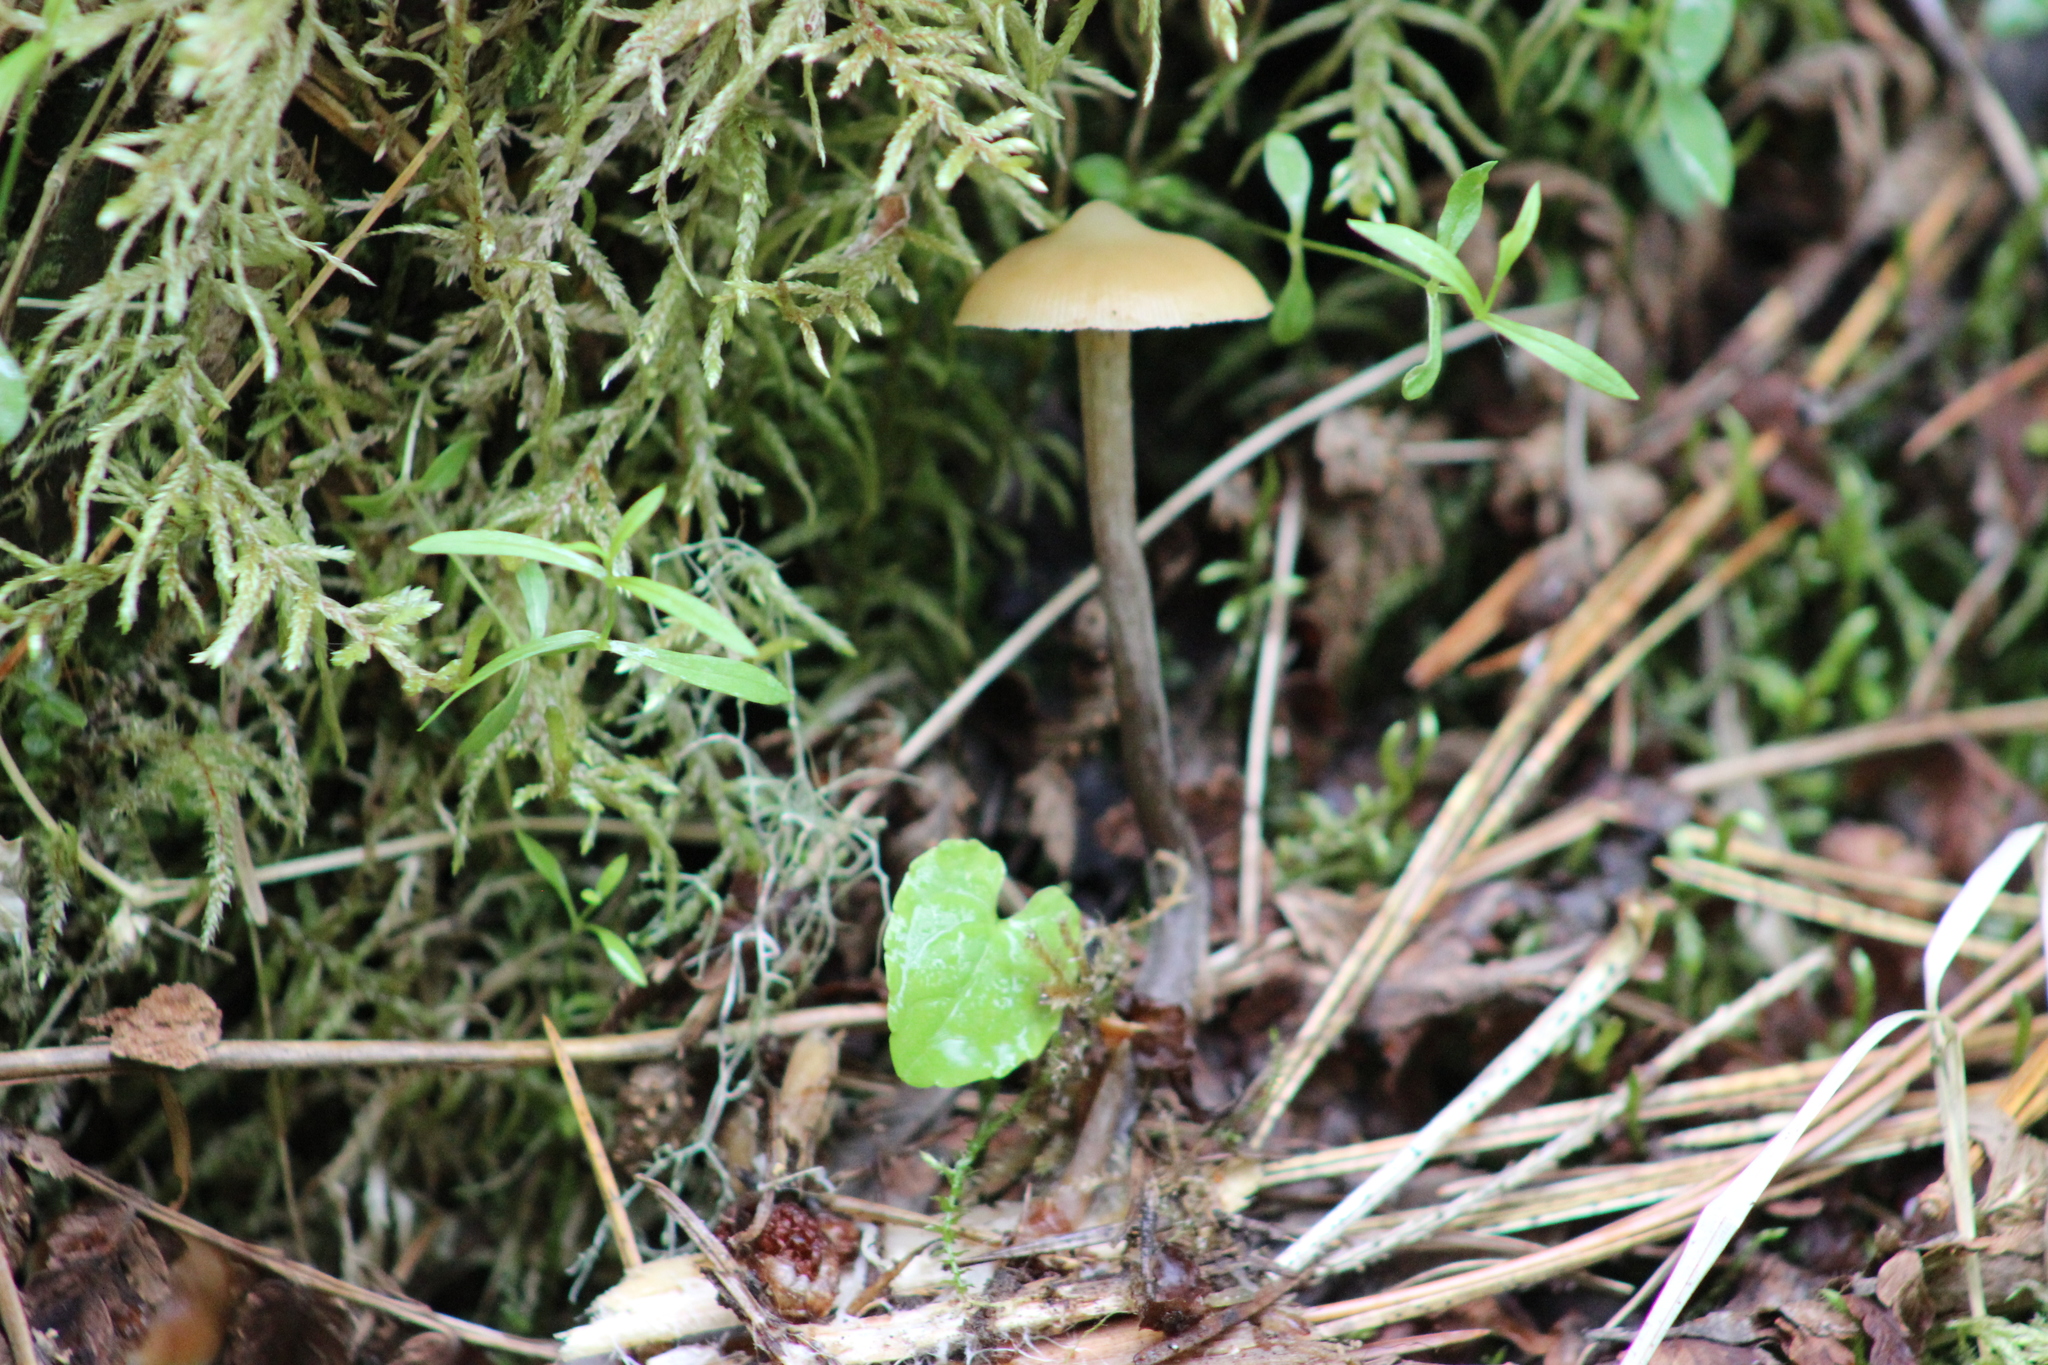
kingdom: Fungi
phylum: Basidiomycota
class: Agaricomycetes
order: Agaricales
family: Strophariaceae
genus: Pholiota
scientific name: Pholiota lignicola
